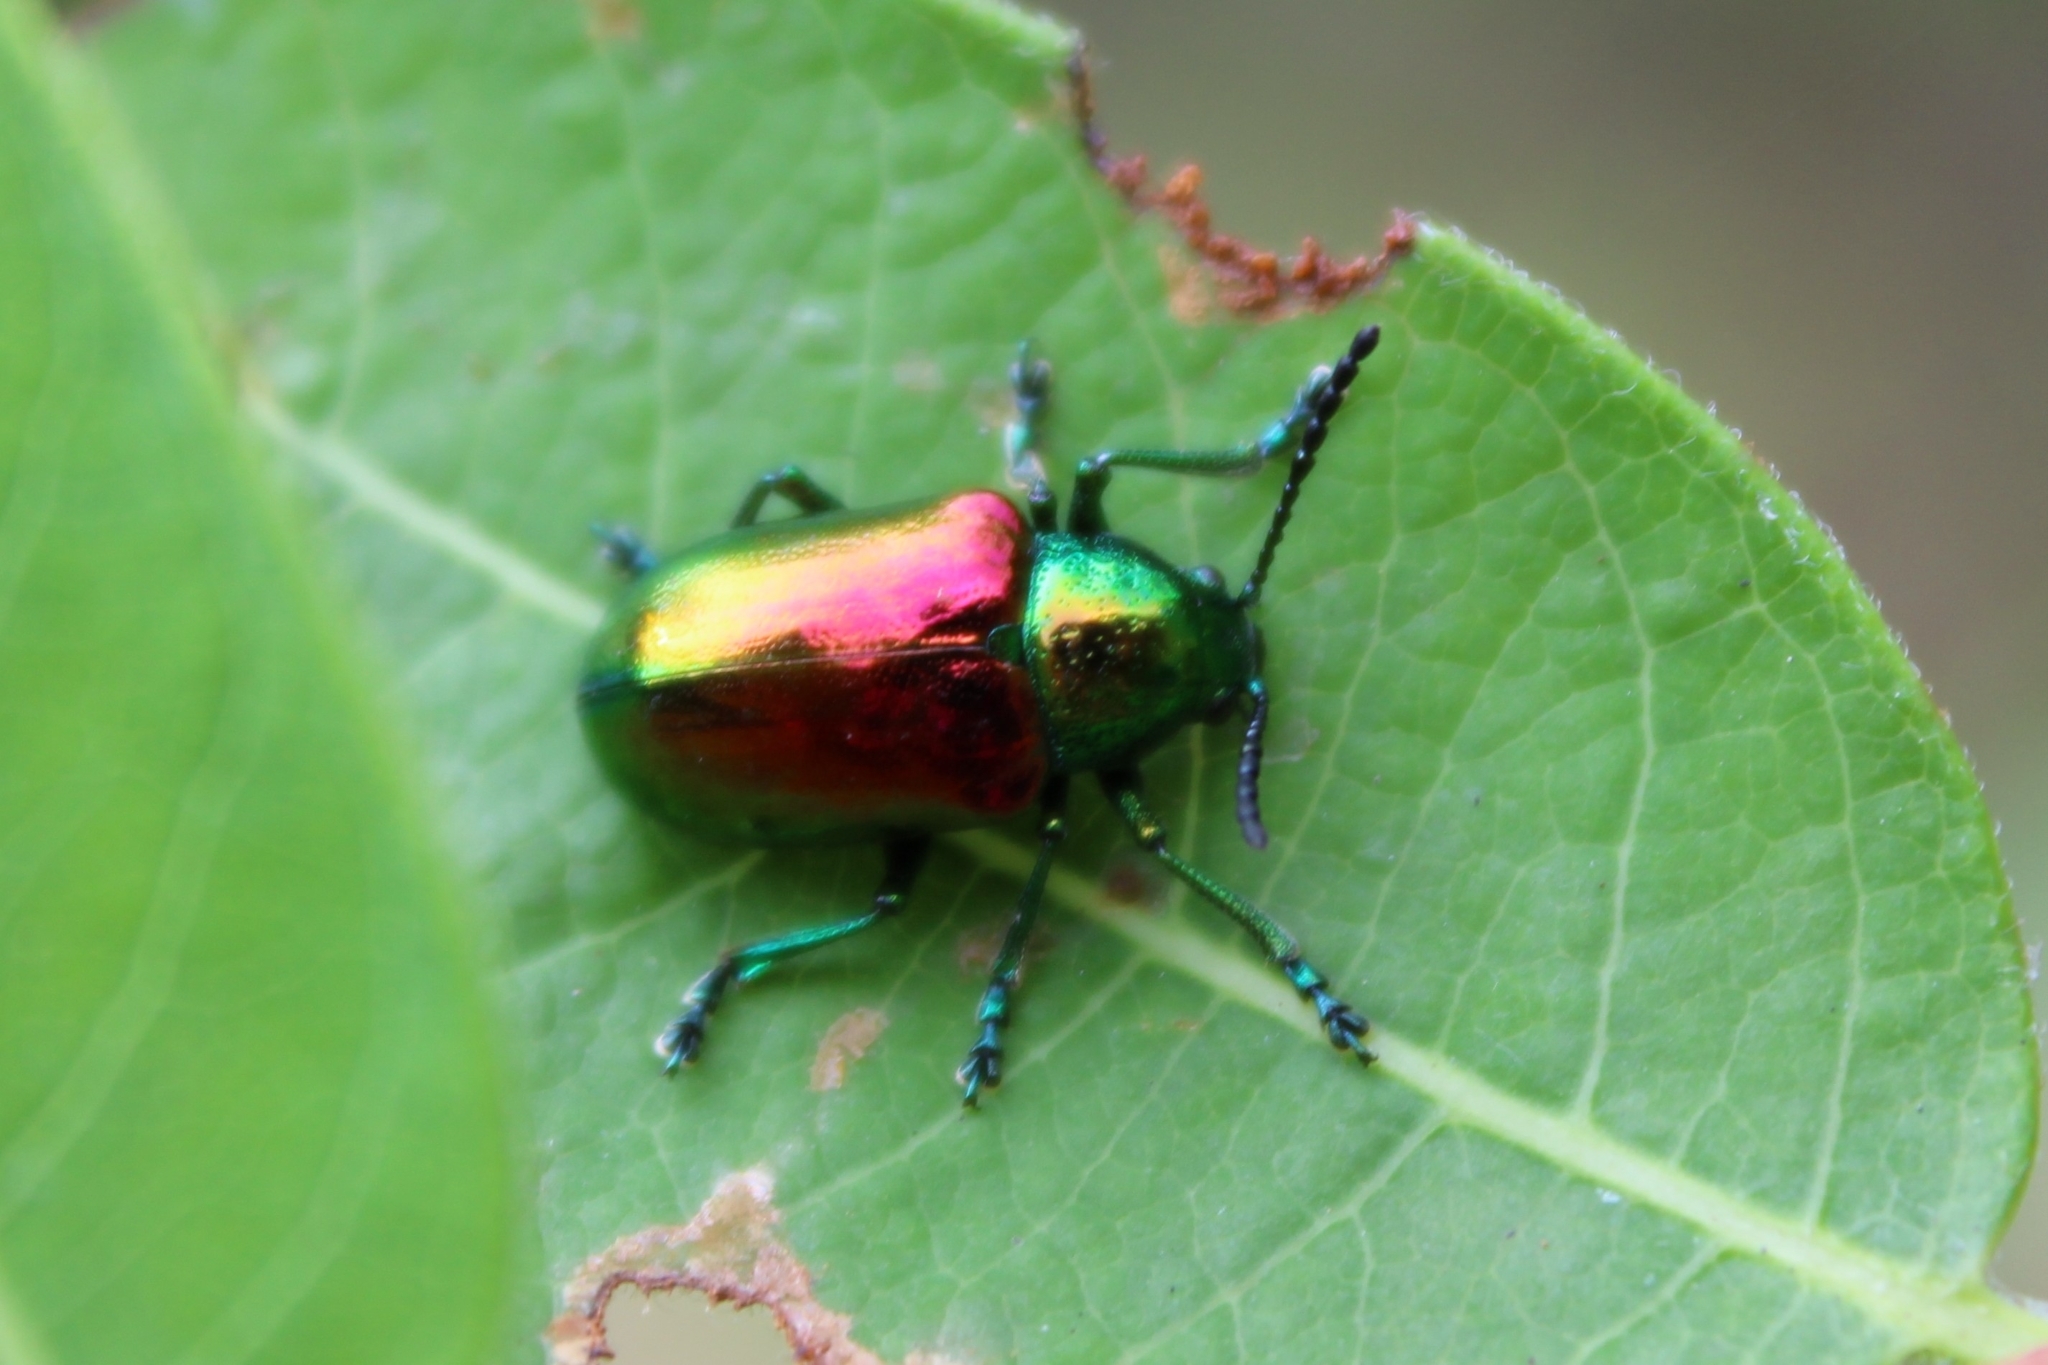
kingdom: Animalia
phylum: Arthropoda
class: Insecta
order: Coleoptera
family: Chrysomelidae
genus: Chrysochus
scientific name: Chrysochus auratus
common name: Dogbane leaf beetle
